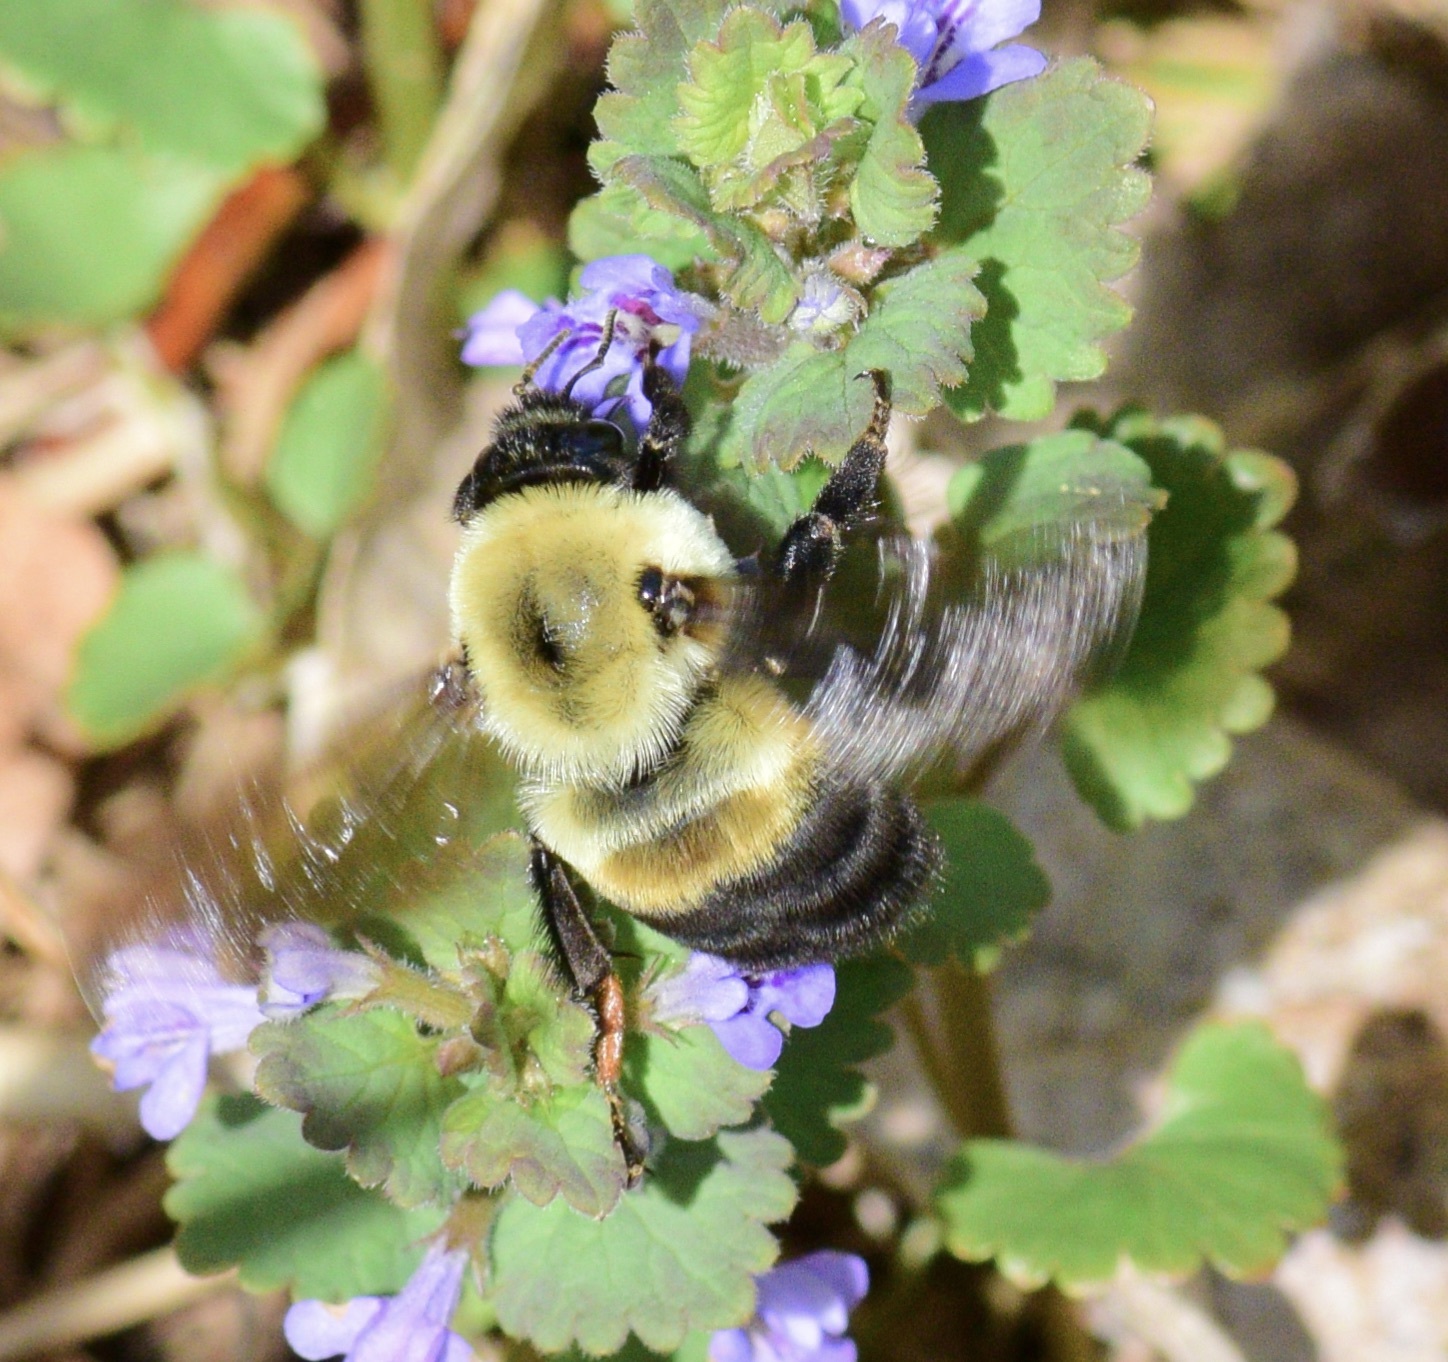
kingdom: Animalia
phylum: Arthropoda
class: Insecta
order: Hymenoptera
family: Apidae
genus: Bombus
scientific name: Bombus griseocollis
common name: Brown-belted bumble bee
